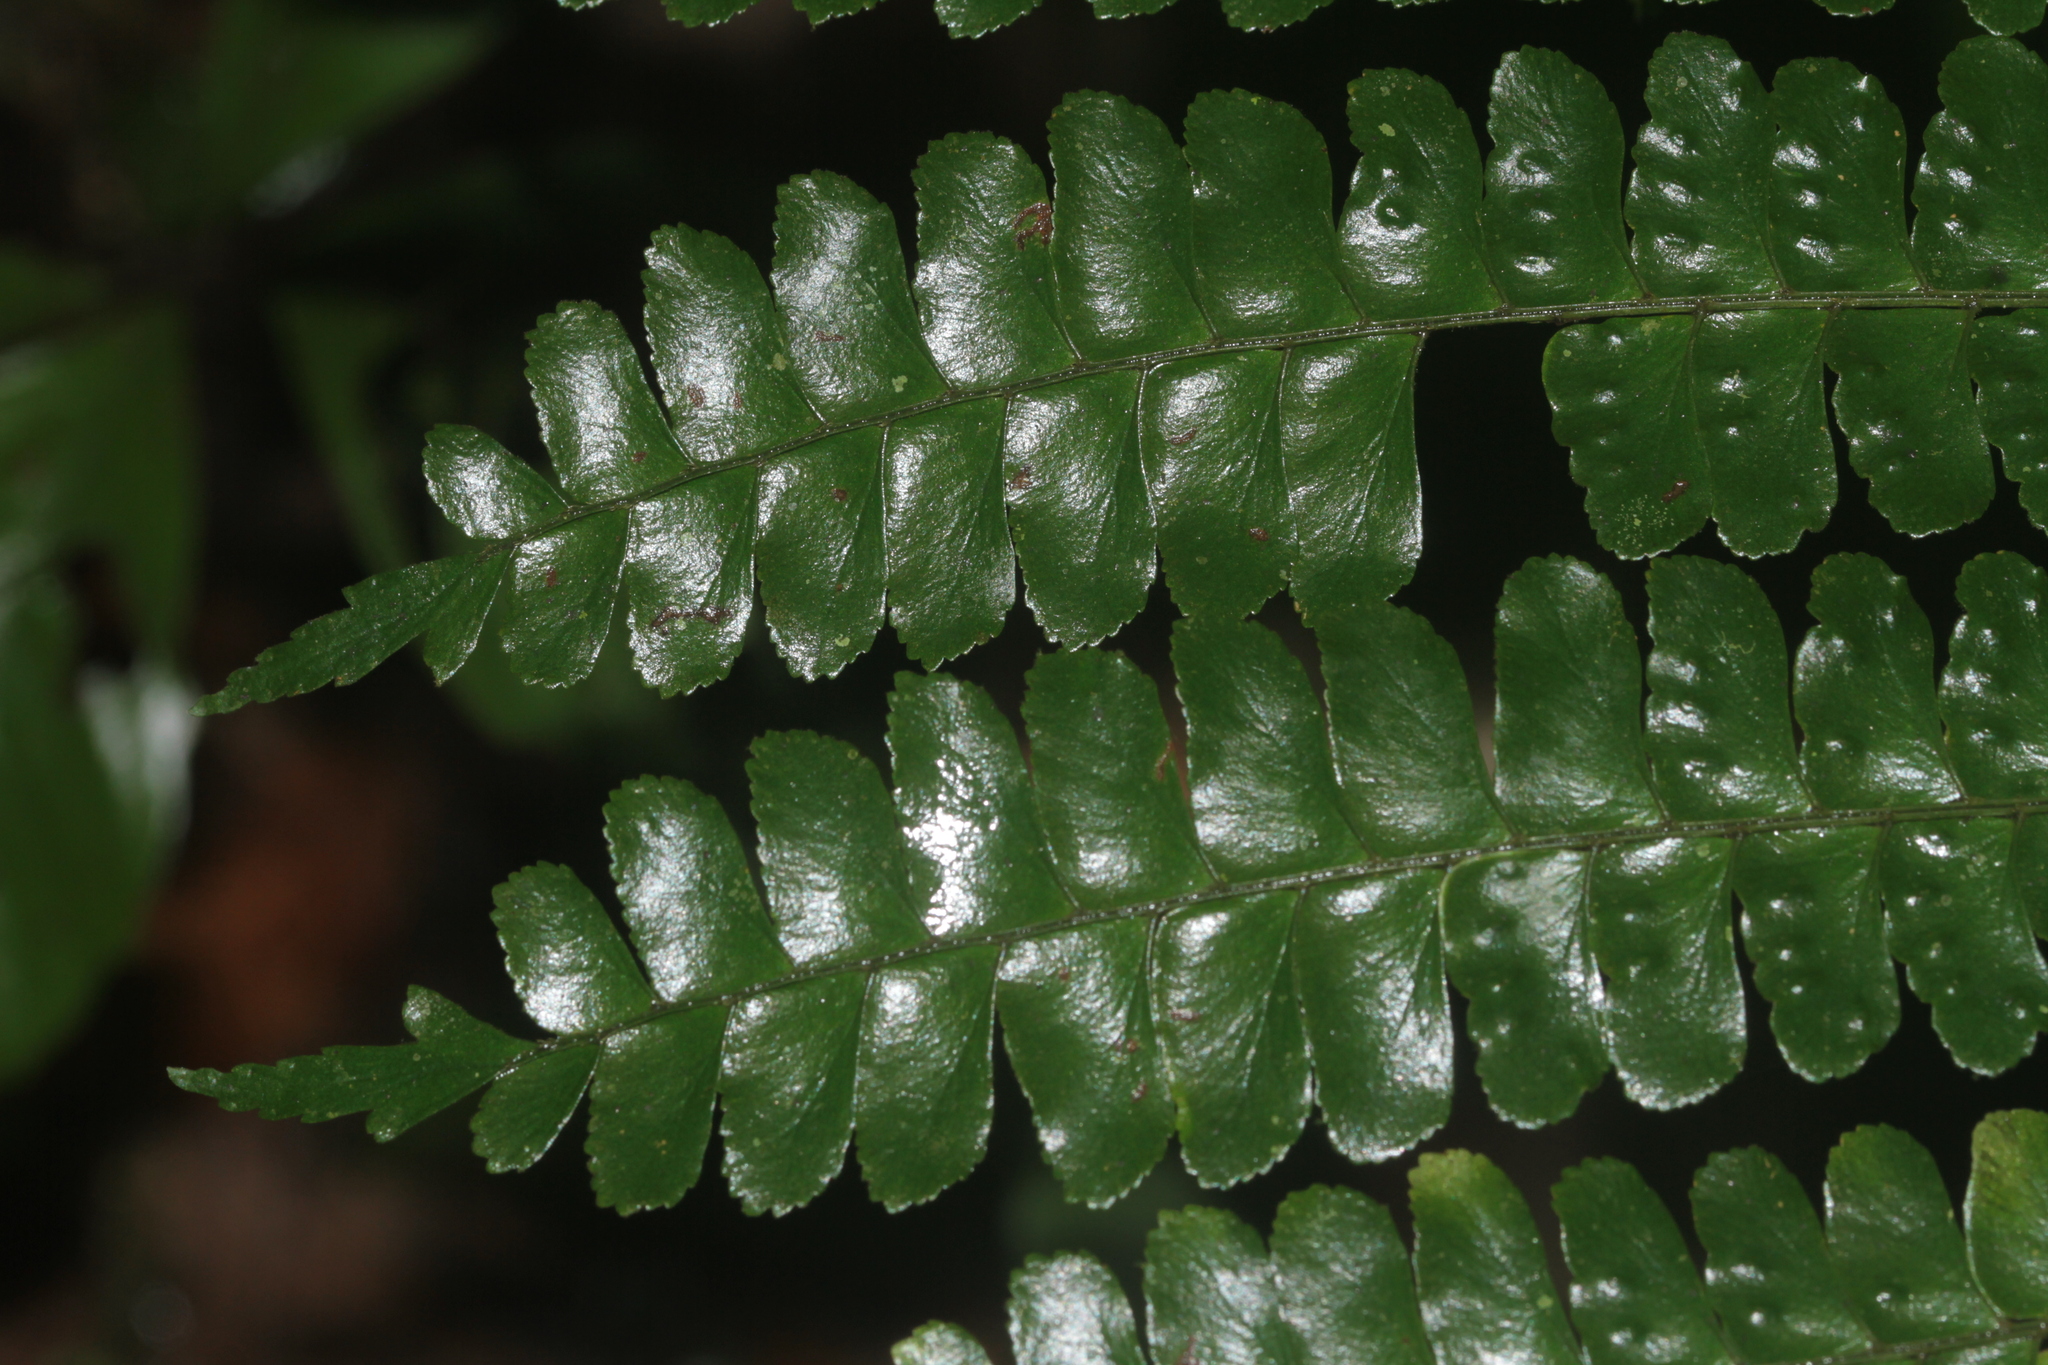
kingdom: Plantae
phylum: Tracheophyta
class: Polypodiopsida
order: Polypodiales
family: Didymochlaenaceae
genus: Didymochlaena
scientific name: Didymochlaena amazonica
